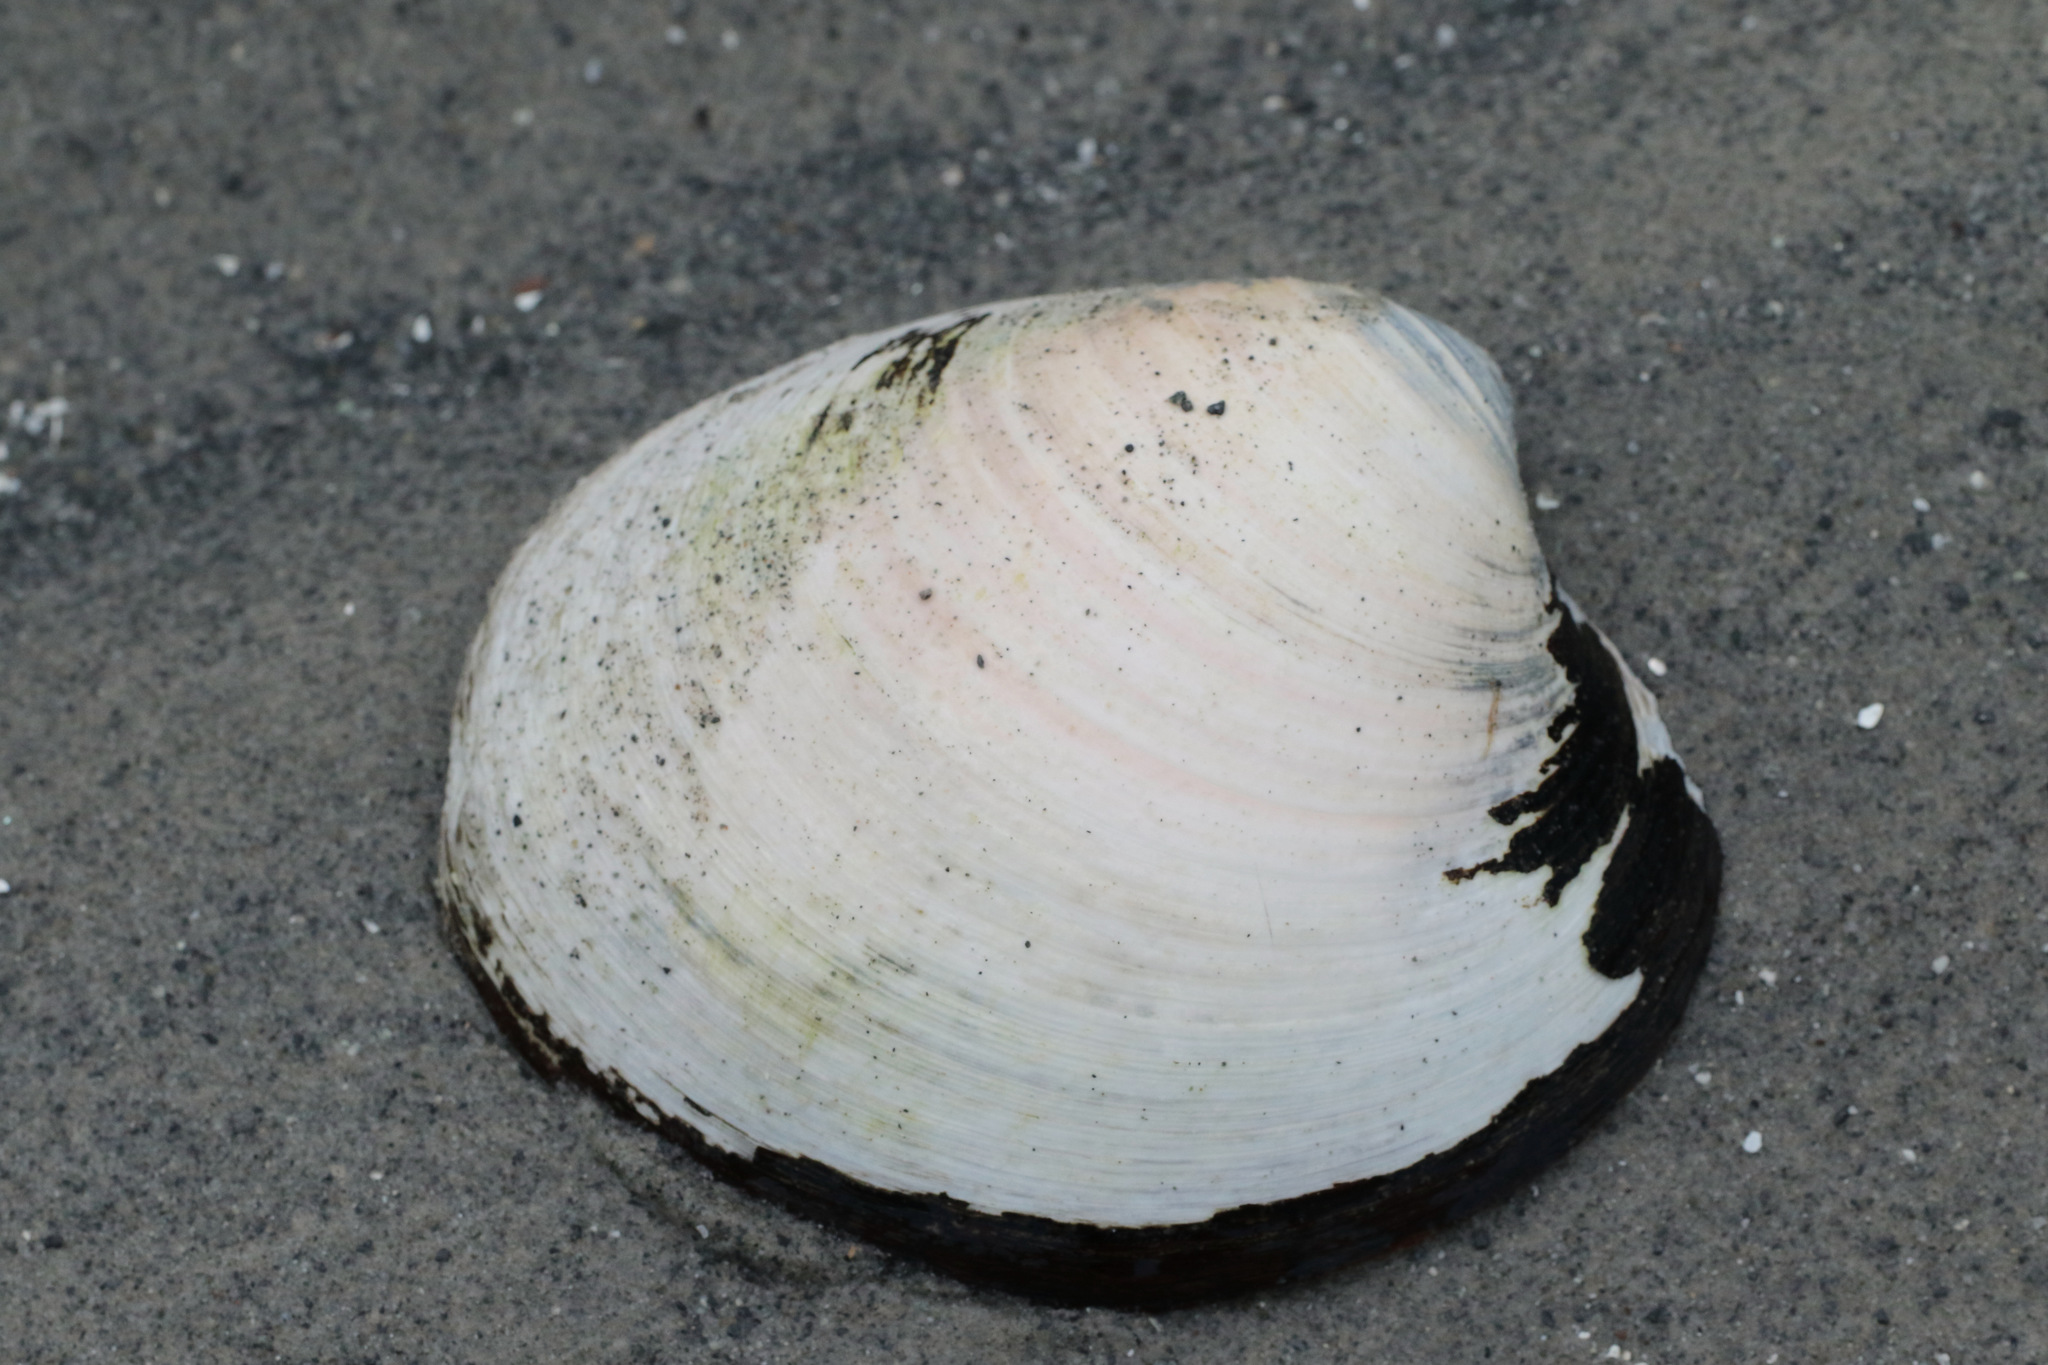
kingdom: Animalia
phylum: Mollusca
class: Bivalvia
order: Venerida
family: Arcticidae
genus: Arctica
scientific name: Arctica islandica
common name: Icelandic cyprine
